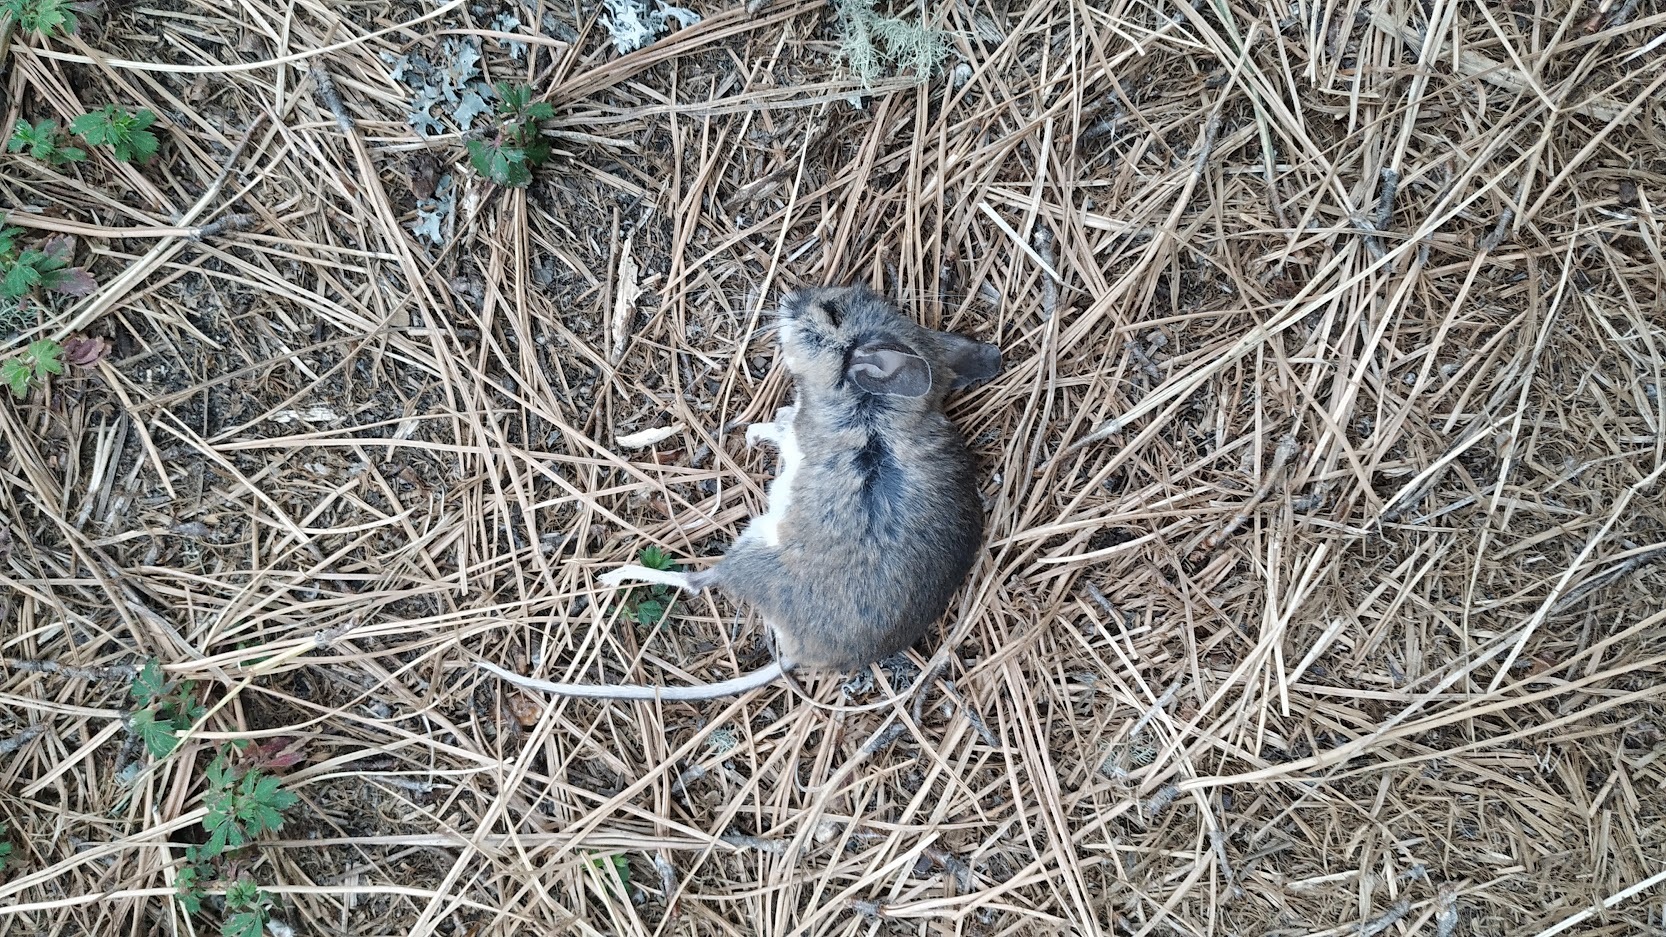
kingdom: Animalia
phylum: Chordata
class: Mammalia
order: Rodentia
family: Muridae
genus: Mus
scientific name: Mus musculus
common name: House mouse
